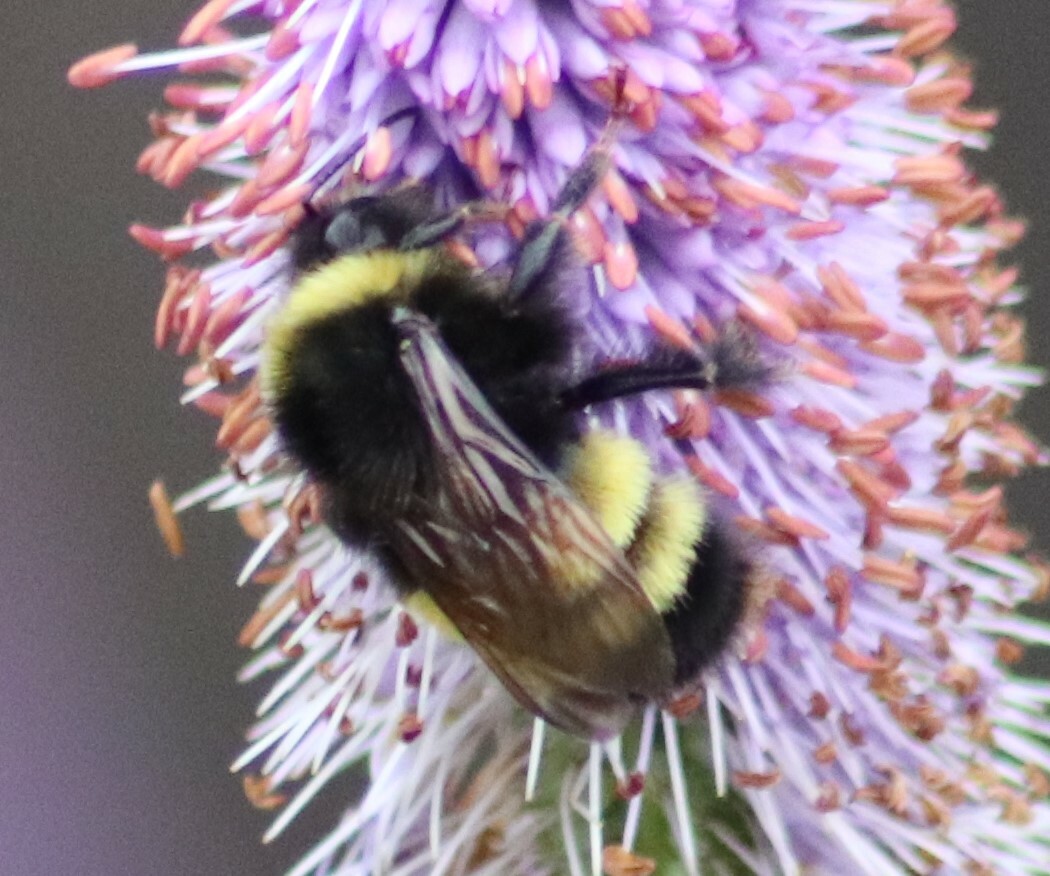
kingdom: Animalia
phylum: Arthropoda
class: Insecta
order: Hymenoptera
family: Apidae
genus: Bombus
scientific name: Bombus terricola
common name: Yellow-banded bumble bee
